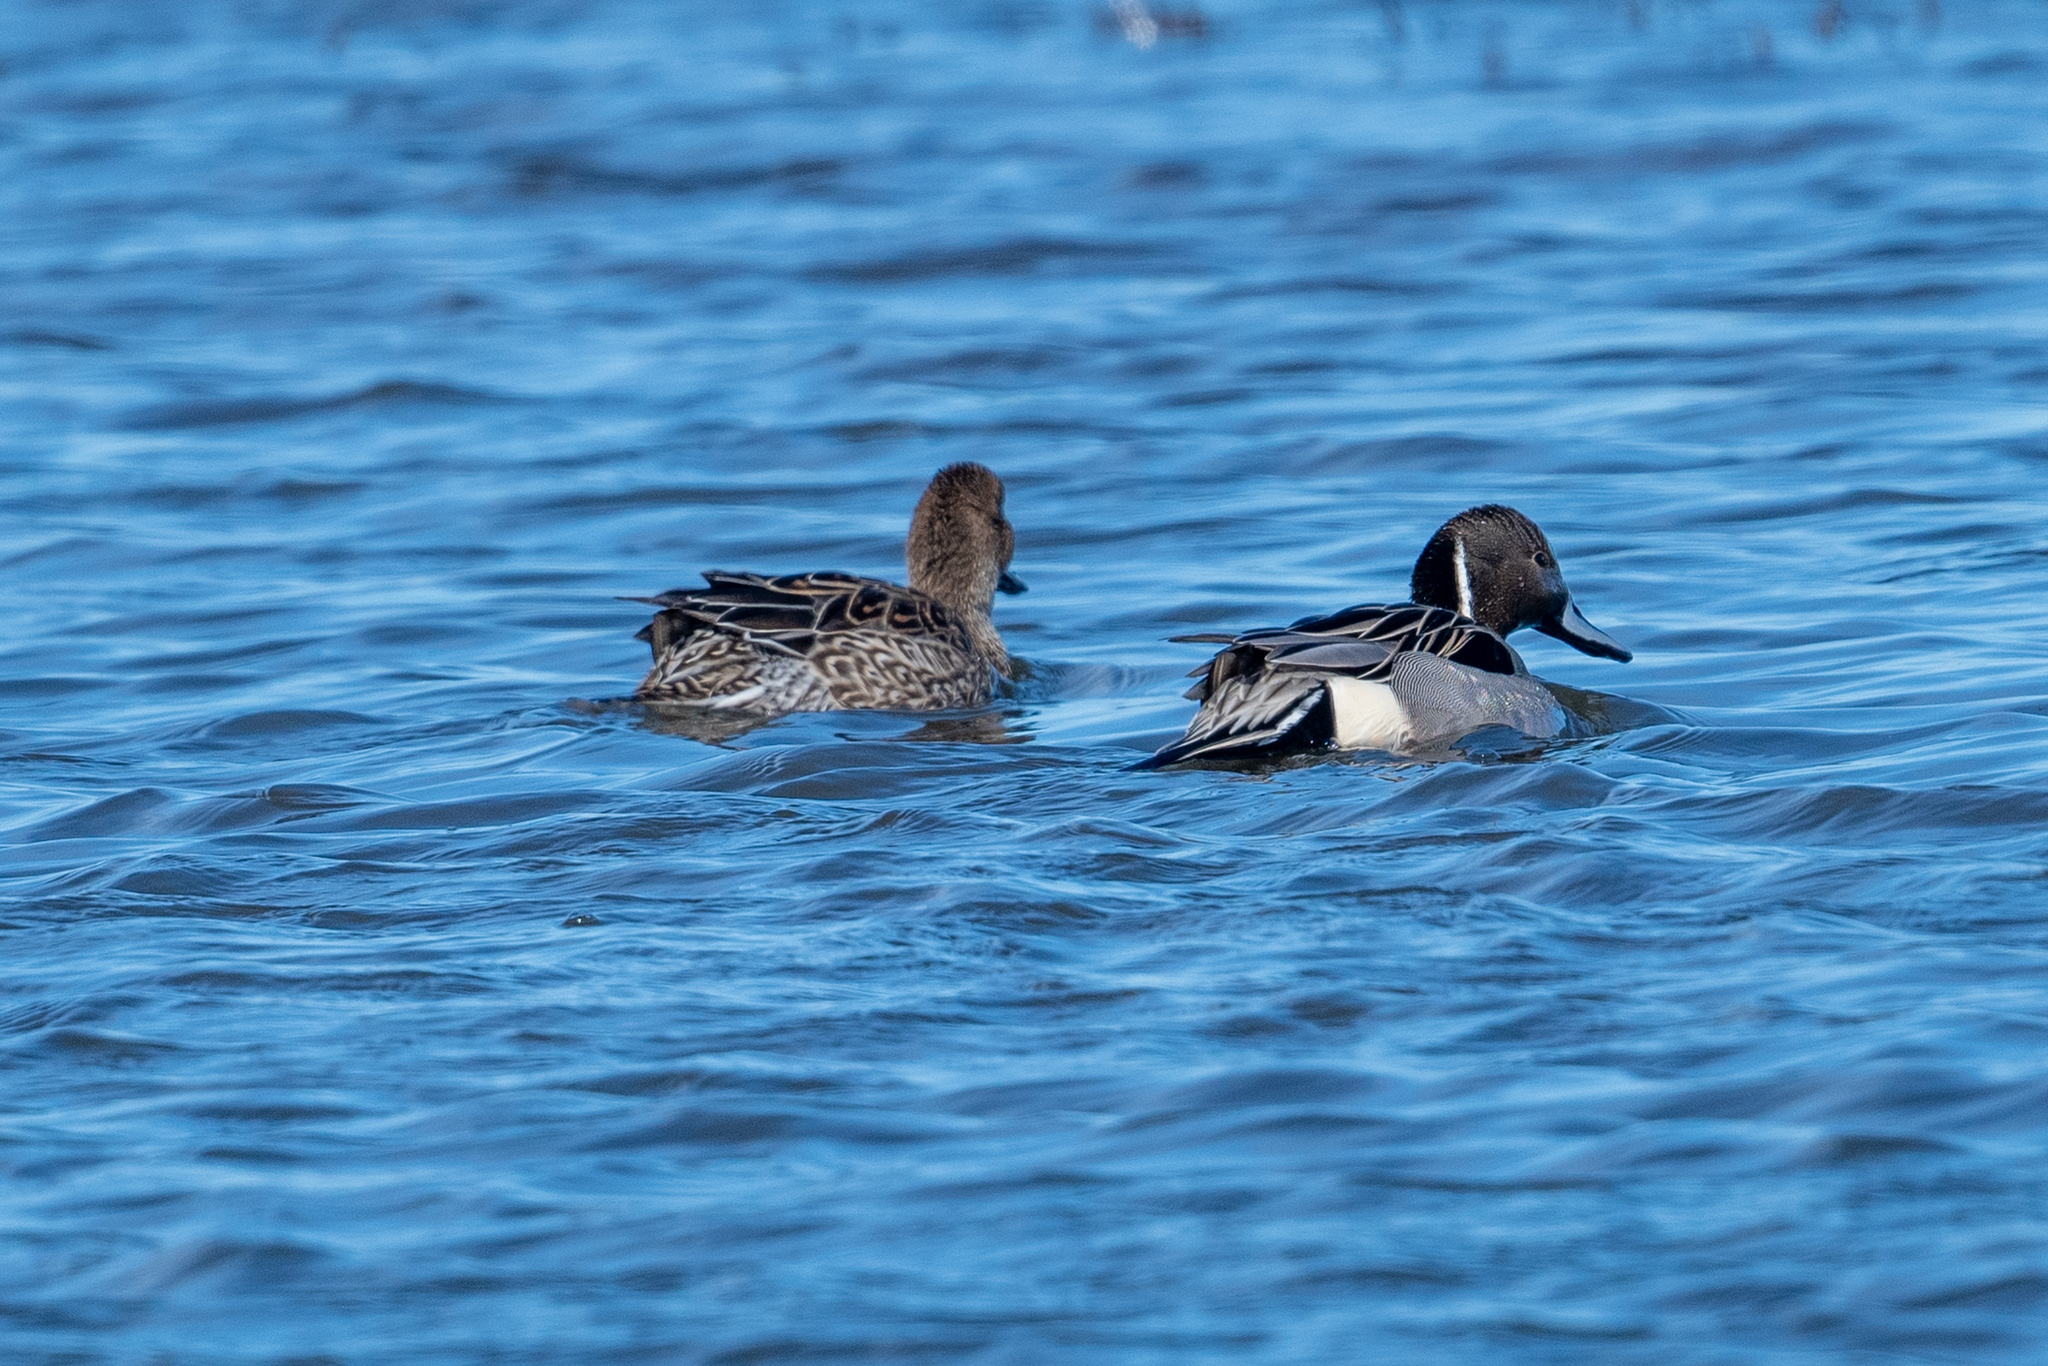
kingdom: Animalia
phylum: Chordata
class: Aves
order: Anseriformes
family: Anatidae
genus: Anas
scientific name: Anas acuta
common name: Northern pintail
